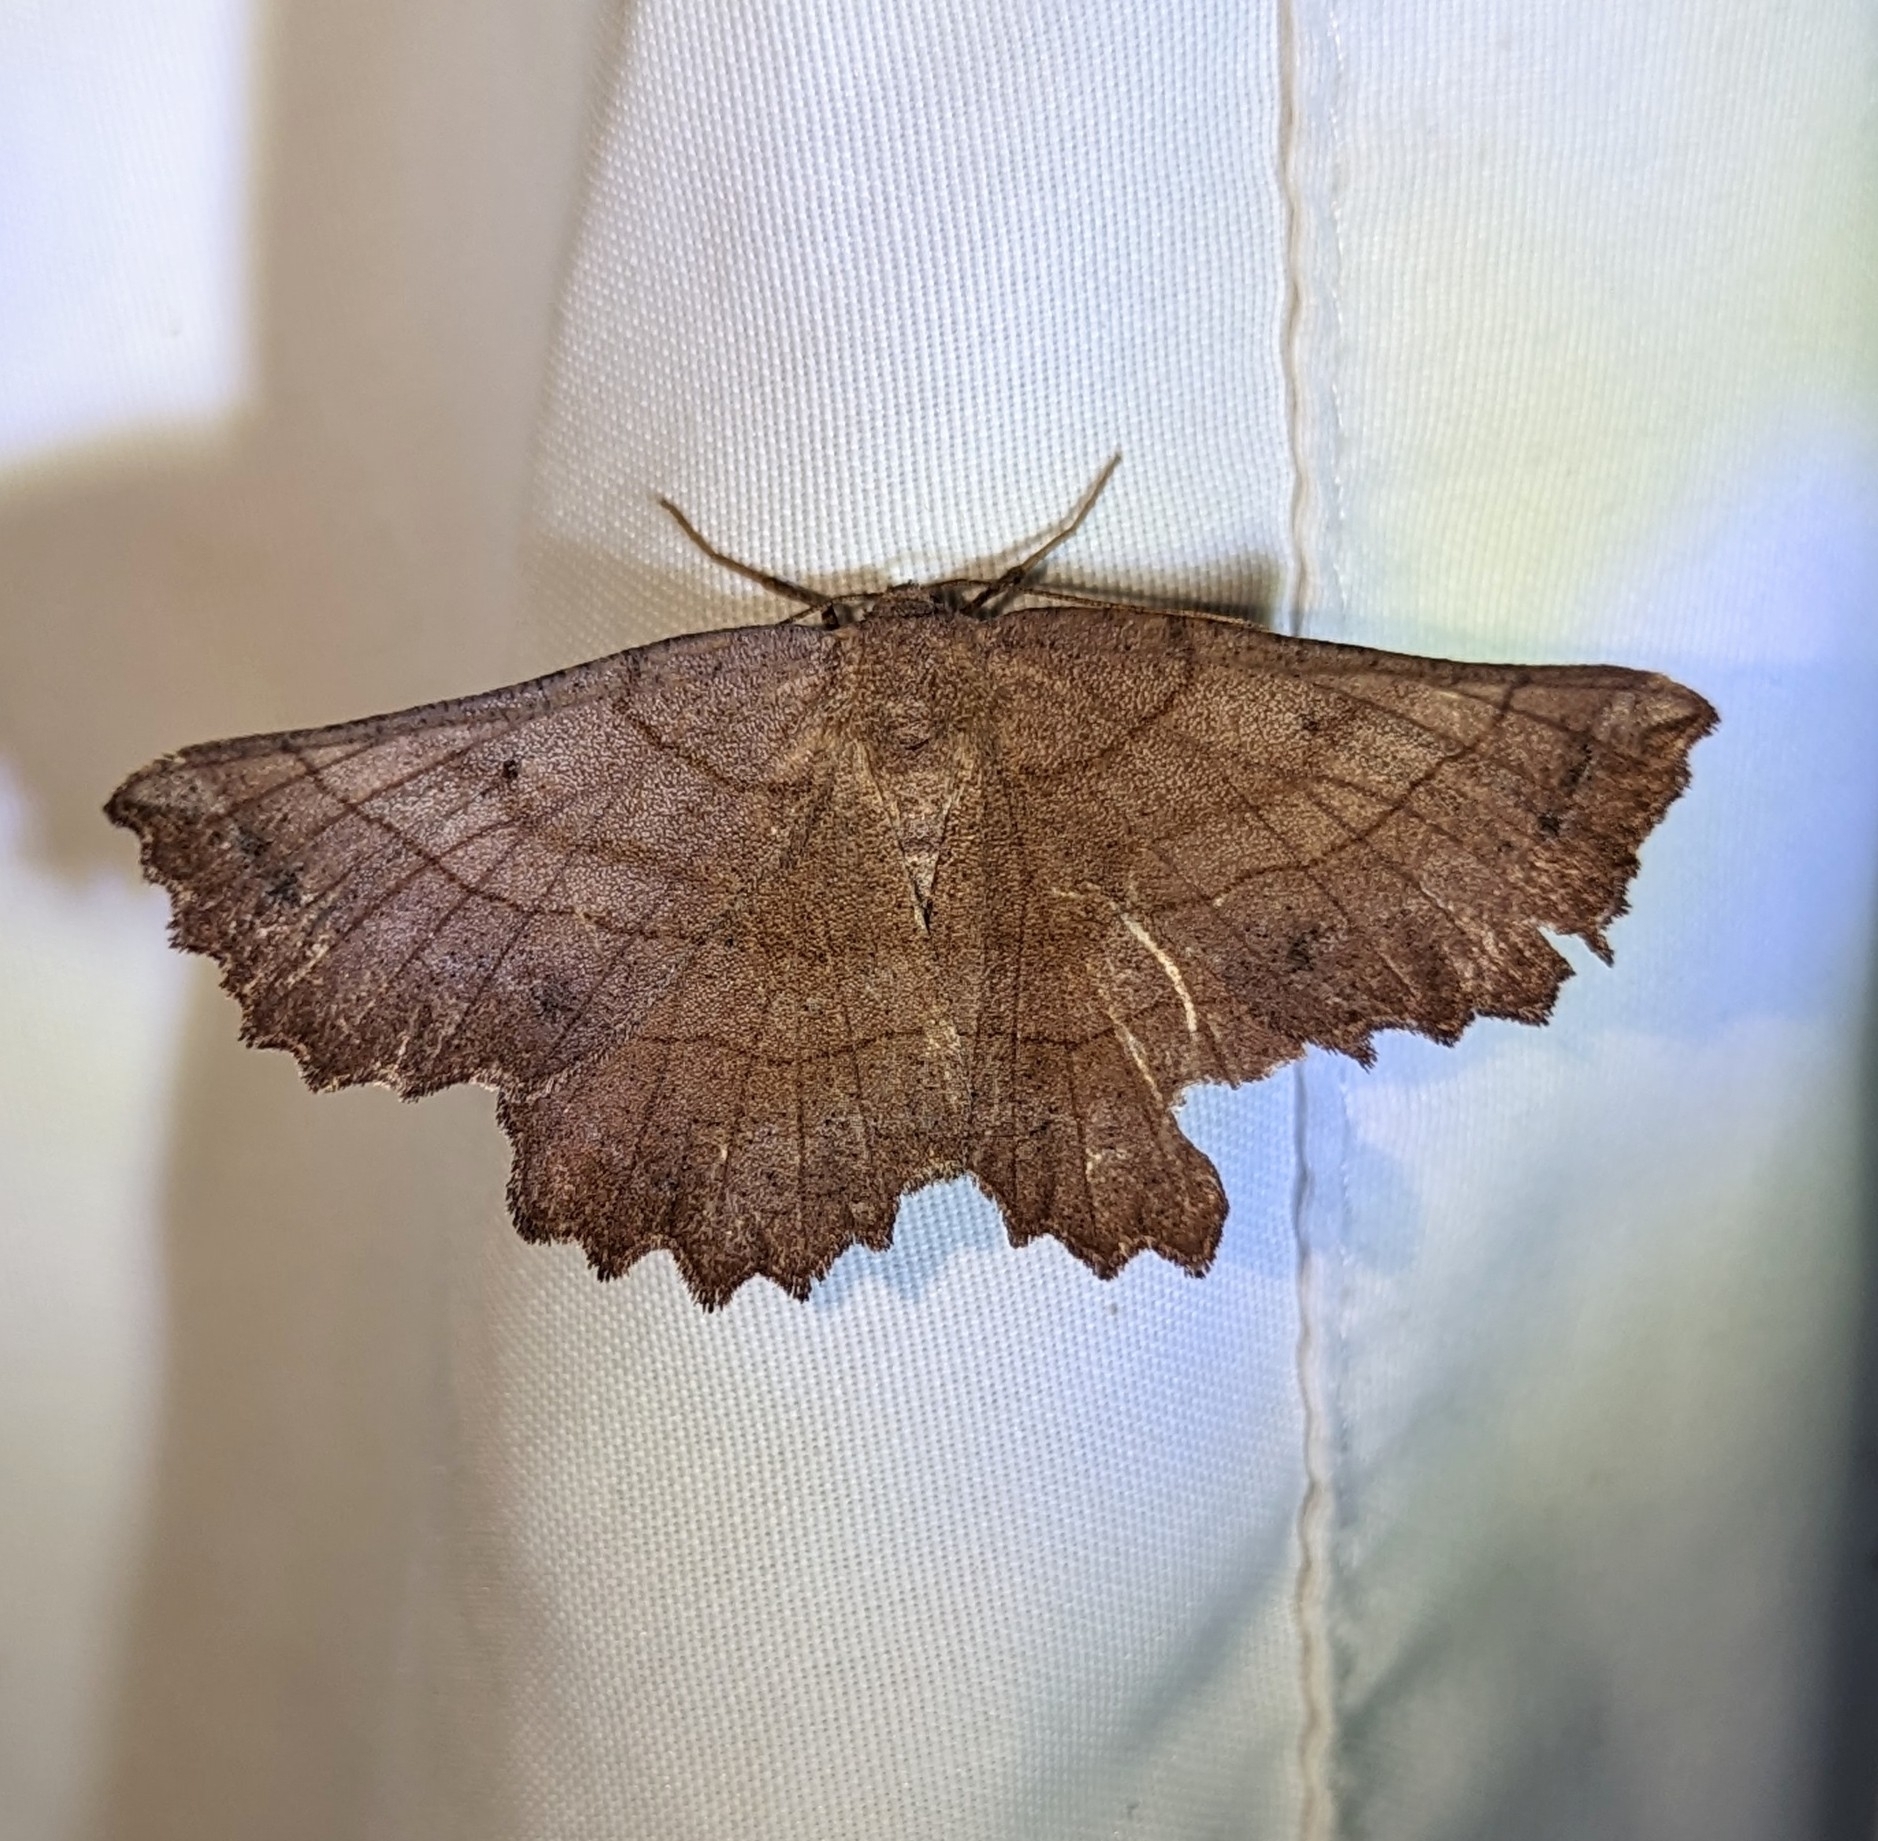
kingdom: Animalia
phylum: Arthropoda
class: Insecta
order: Lepidoptera
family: Geometridae
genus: Euchlaena
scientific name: Euchlaena johnsonaria
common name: Johnson's euchlaena
